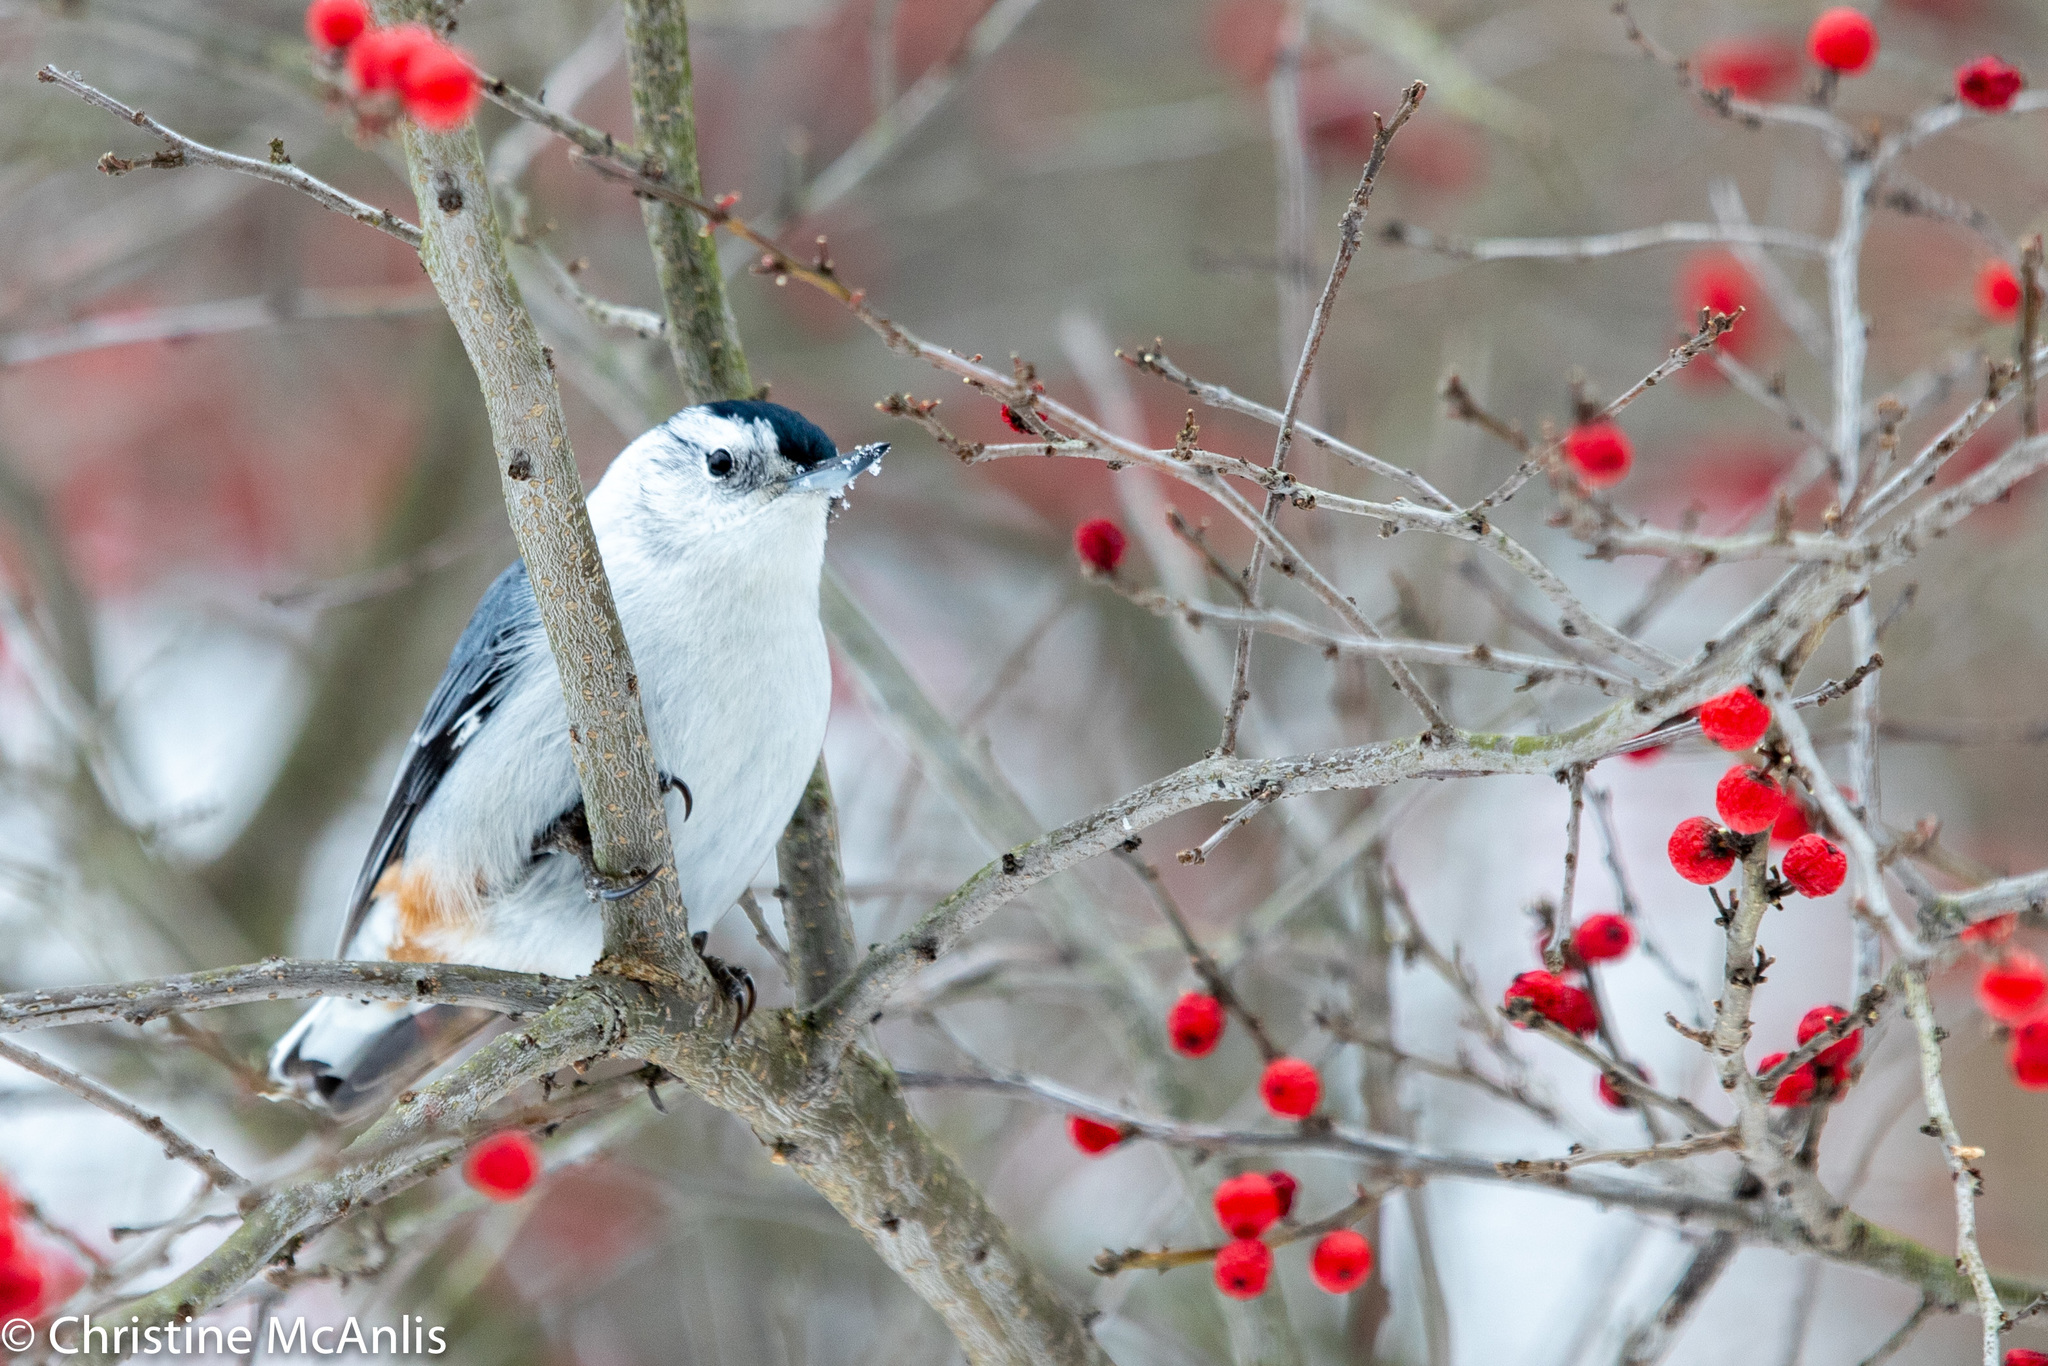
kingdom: Animalia
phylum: Chordata
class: Aves
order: Passeriformes
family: Sittidae
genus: Sitta
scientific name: Sitta carolinensis
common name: White-breasted nuthatch
